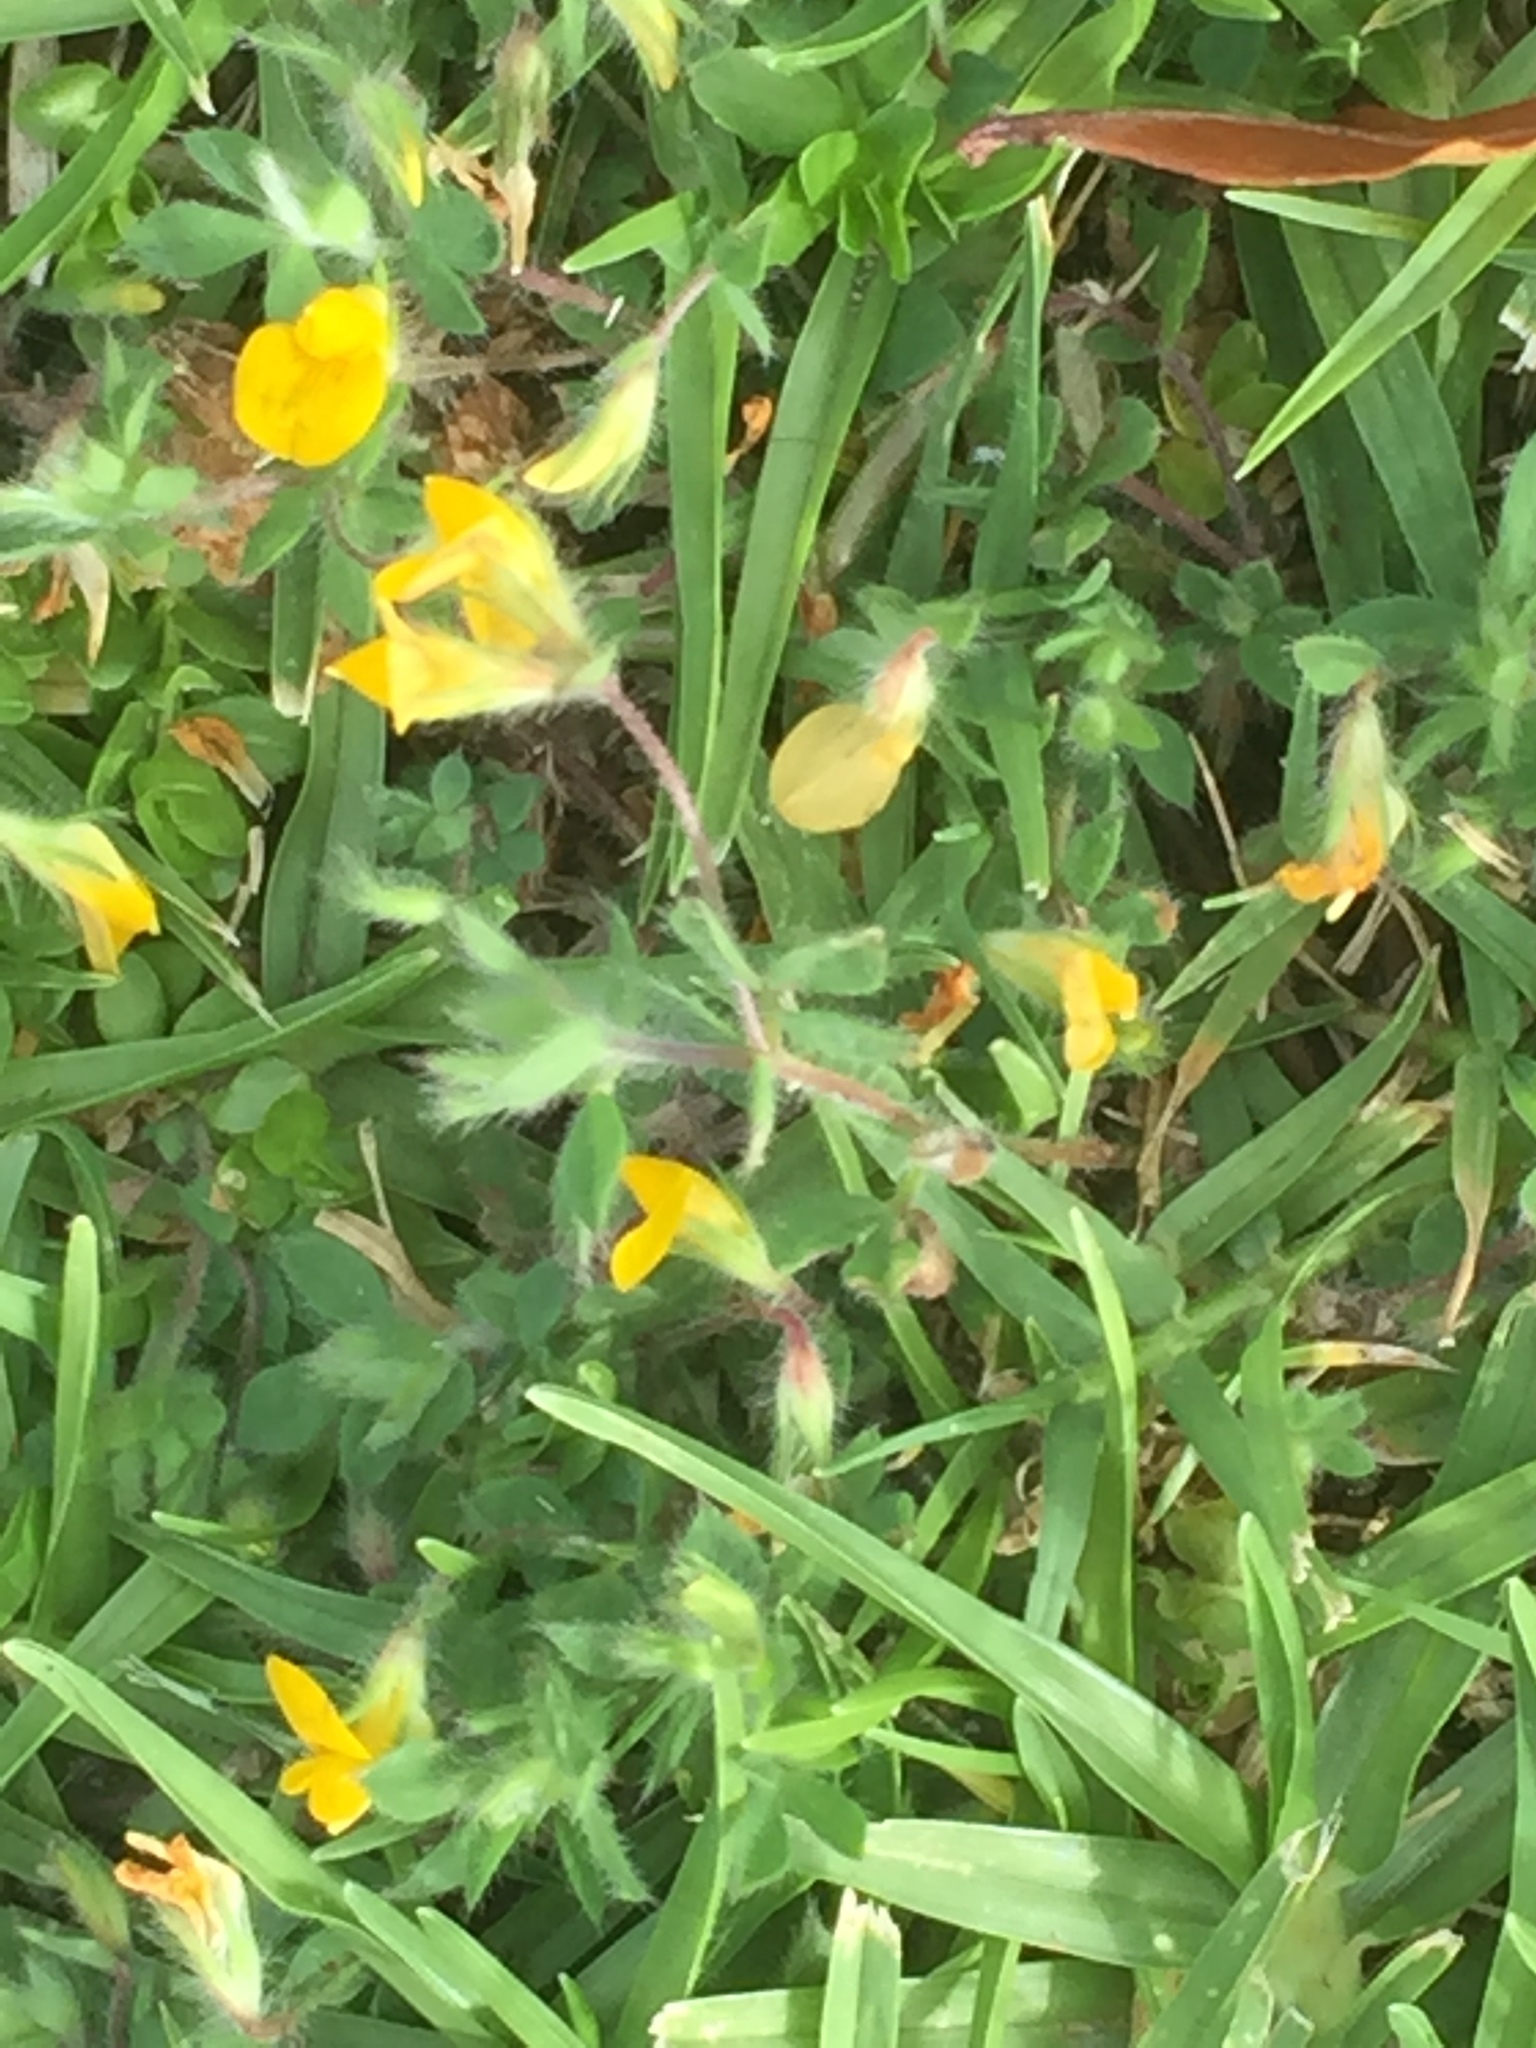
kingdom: Plantae
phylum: Tracheophyta
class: Magnoliopsida
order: Fabales
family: Fabaceae
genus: Lotus
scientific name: Lotus subbiflorus
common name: Hairy bird's-foot trefoil
